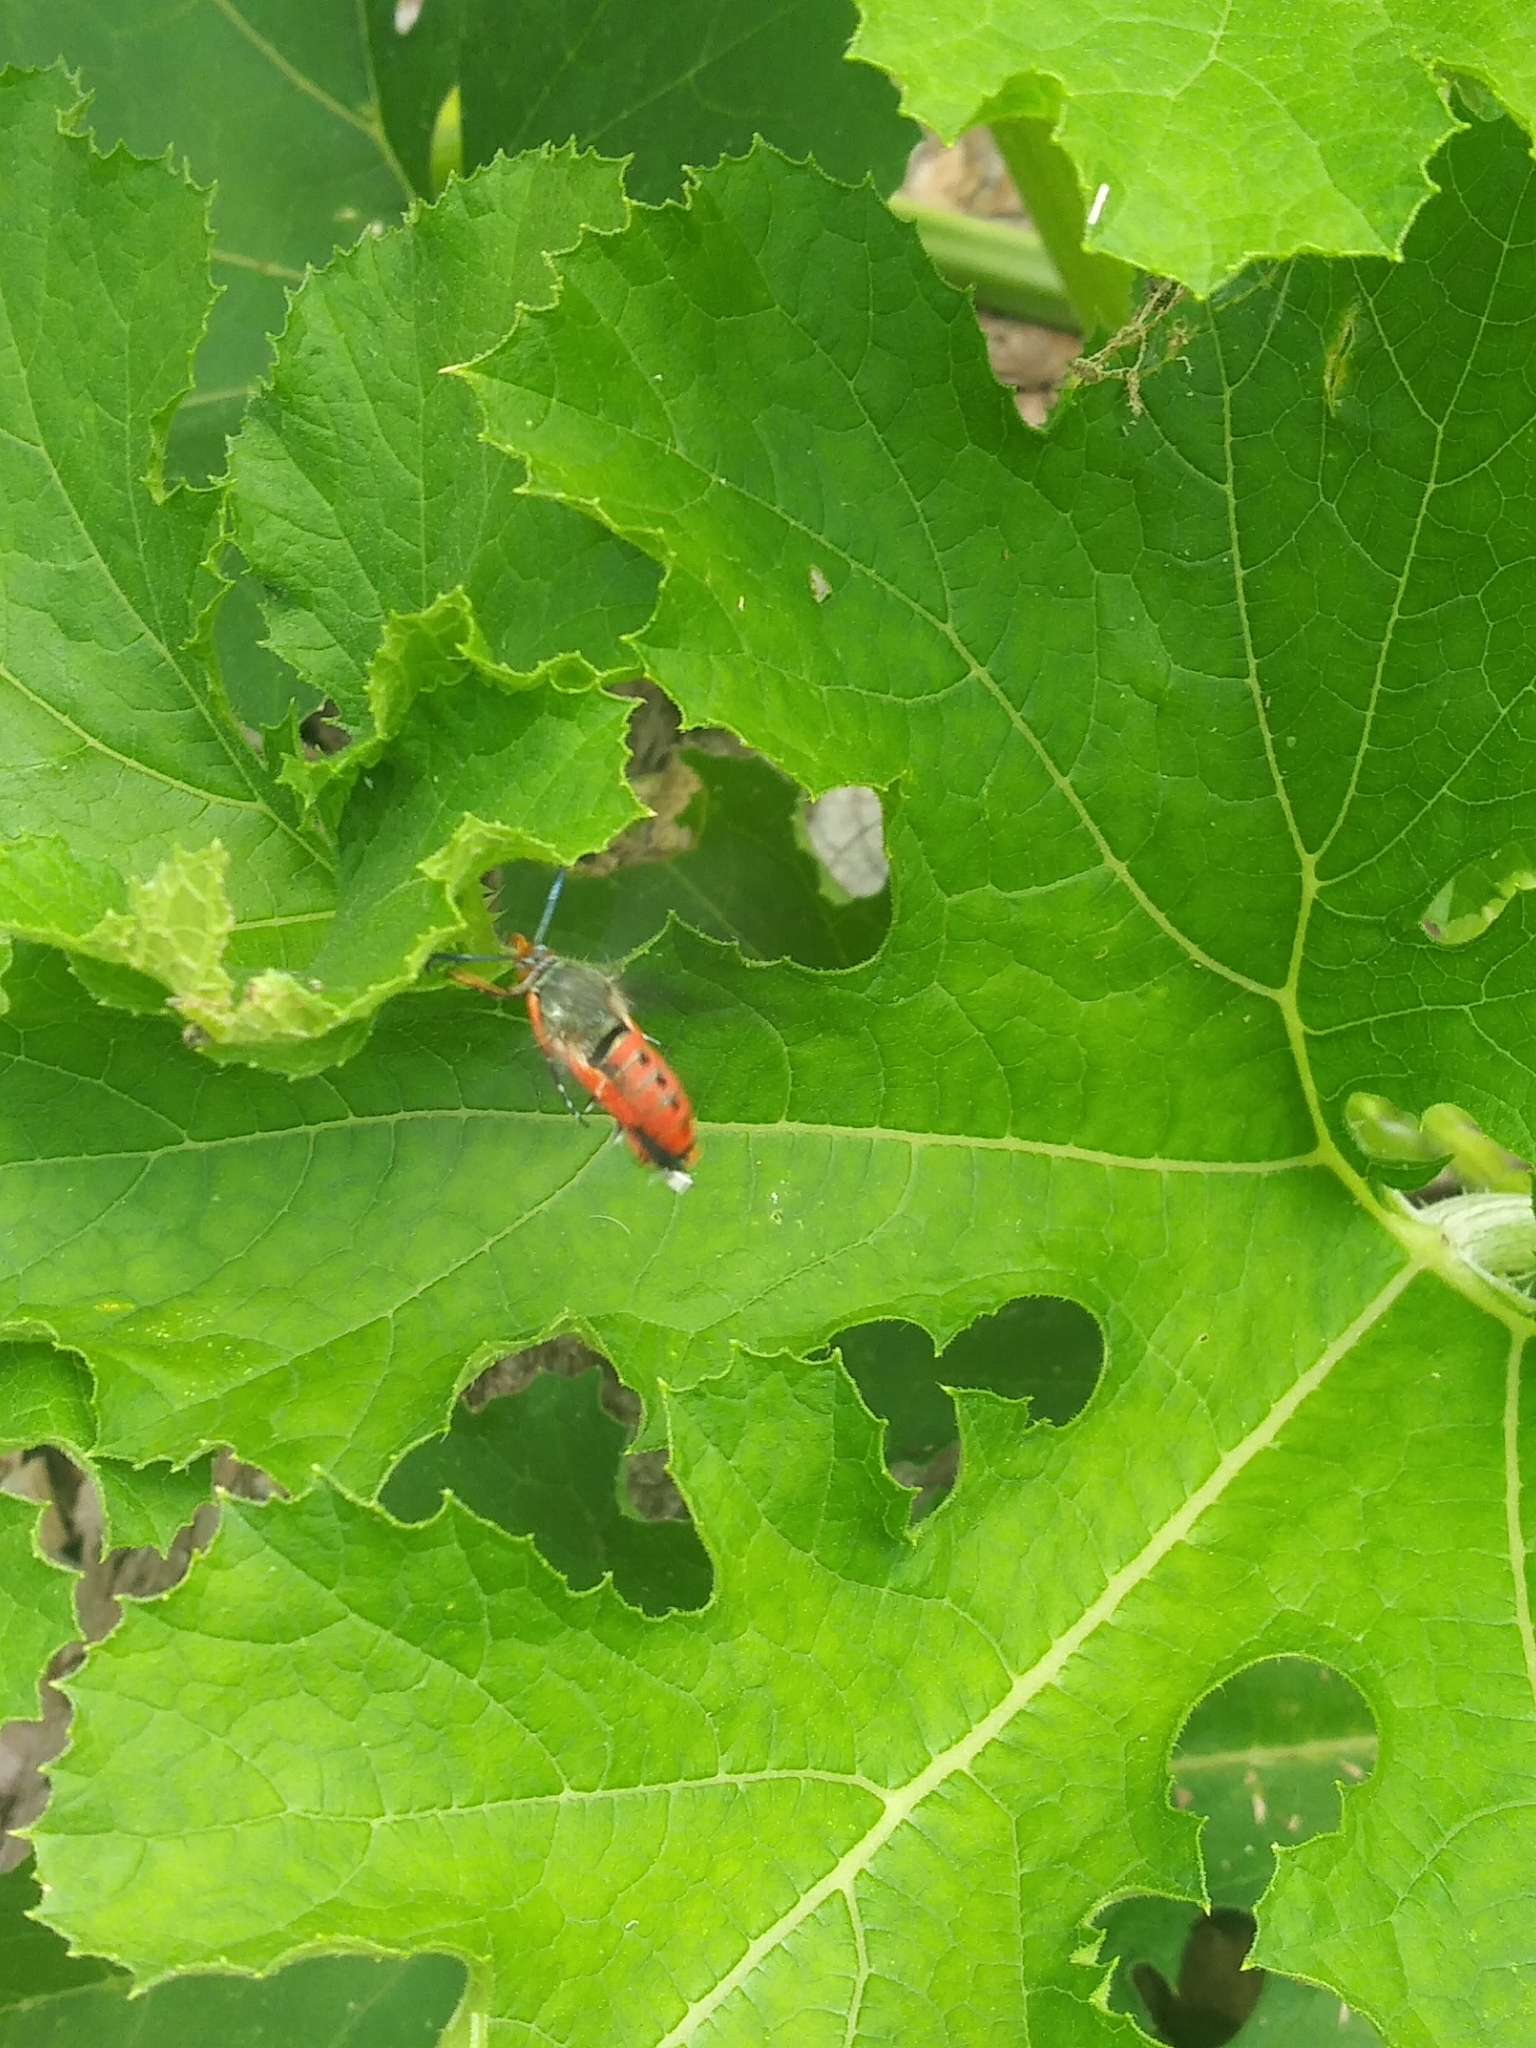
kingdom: Animalia
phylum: Arthropoda
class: Insecta
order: Lepidoptera
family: Sesiidae
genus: Eichlinia
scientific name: Eichlinia cucurbitae
